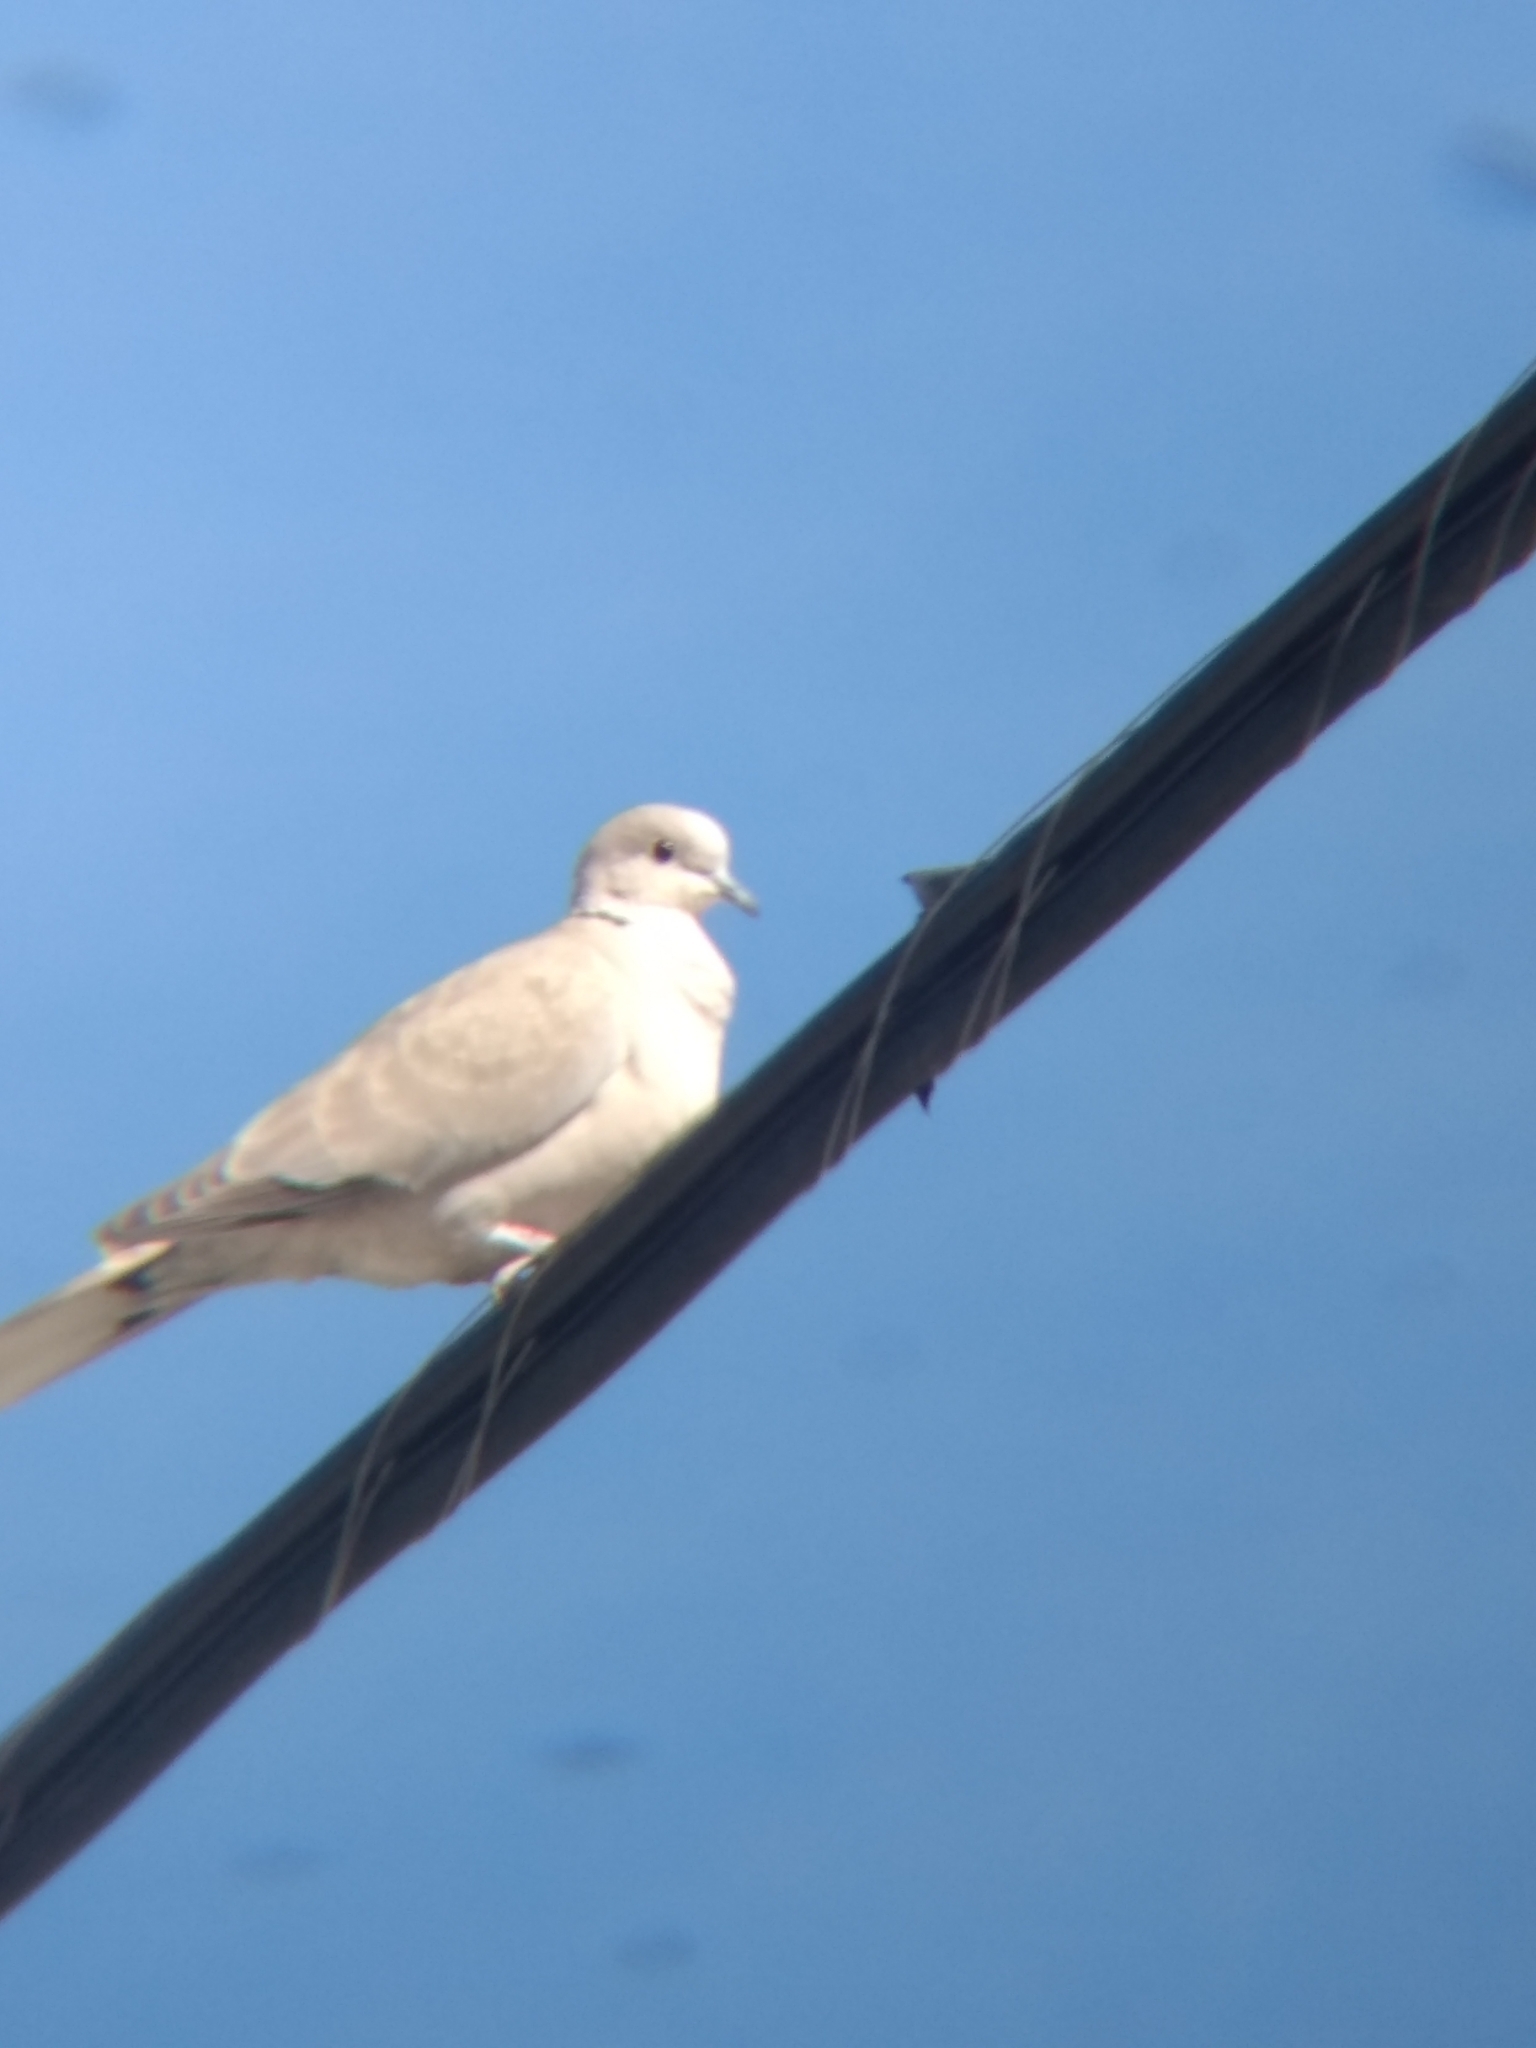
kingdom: Animalia
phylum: Chordata
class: Aves
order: Columbiformes
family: Columbidae
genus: Streptopelia
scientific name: Streptopelia decaocto
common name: Eurasian collared dove
